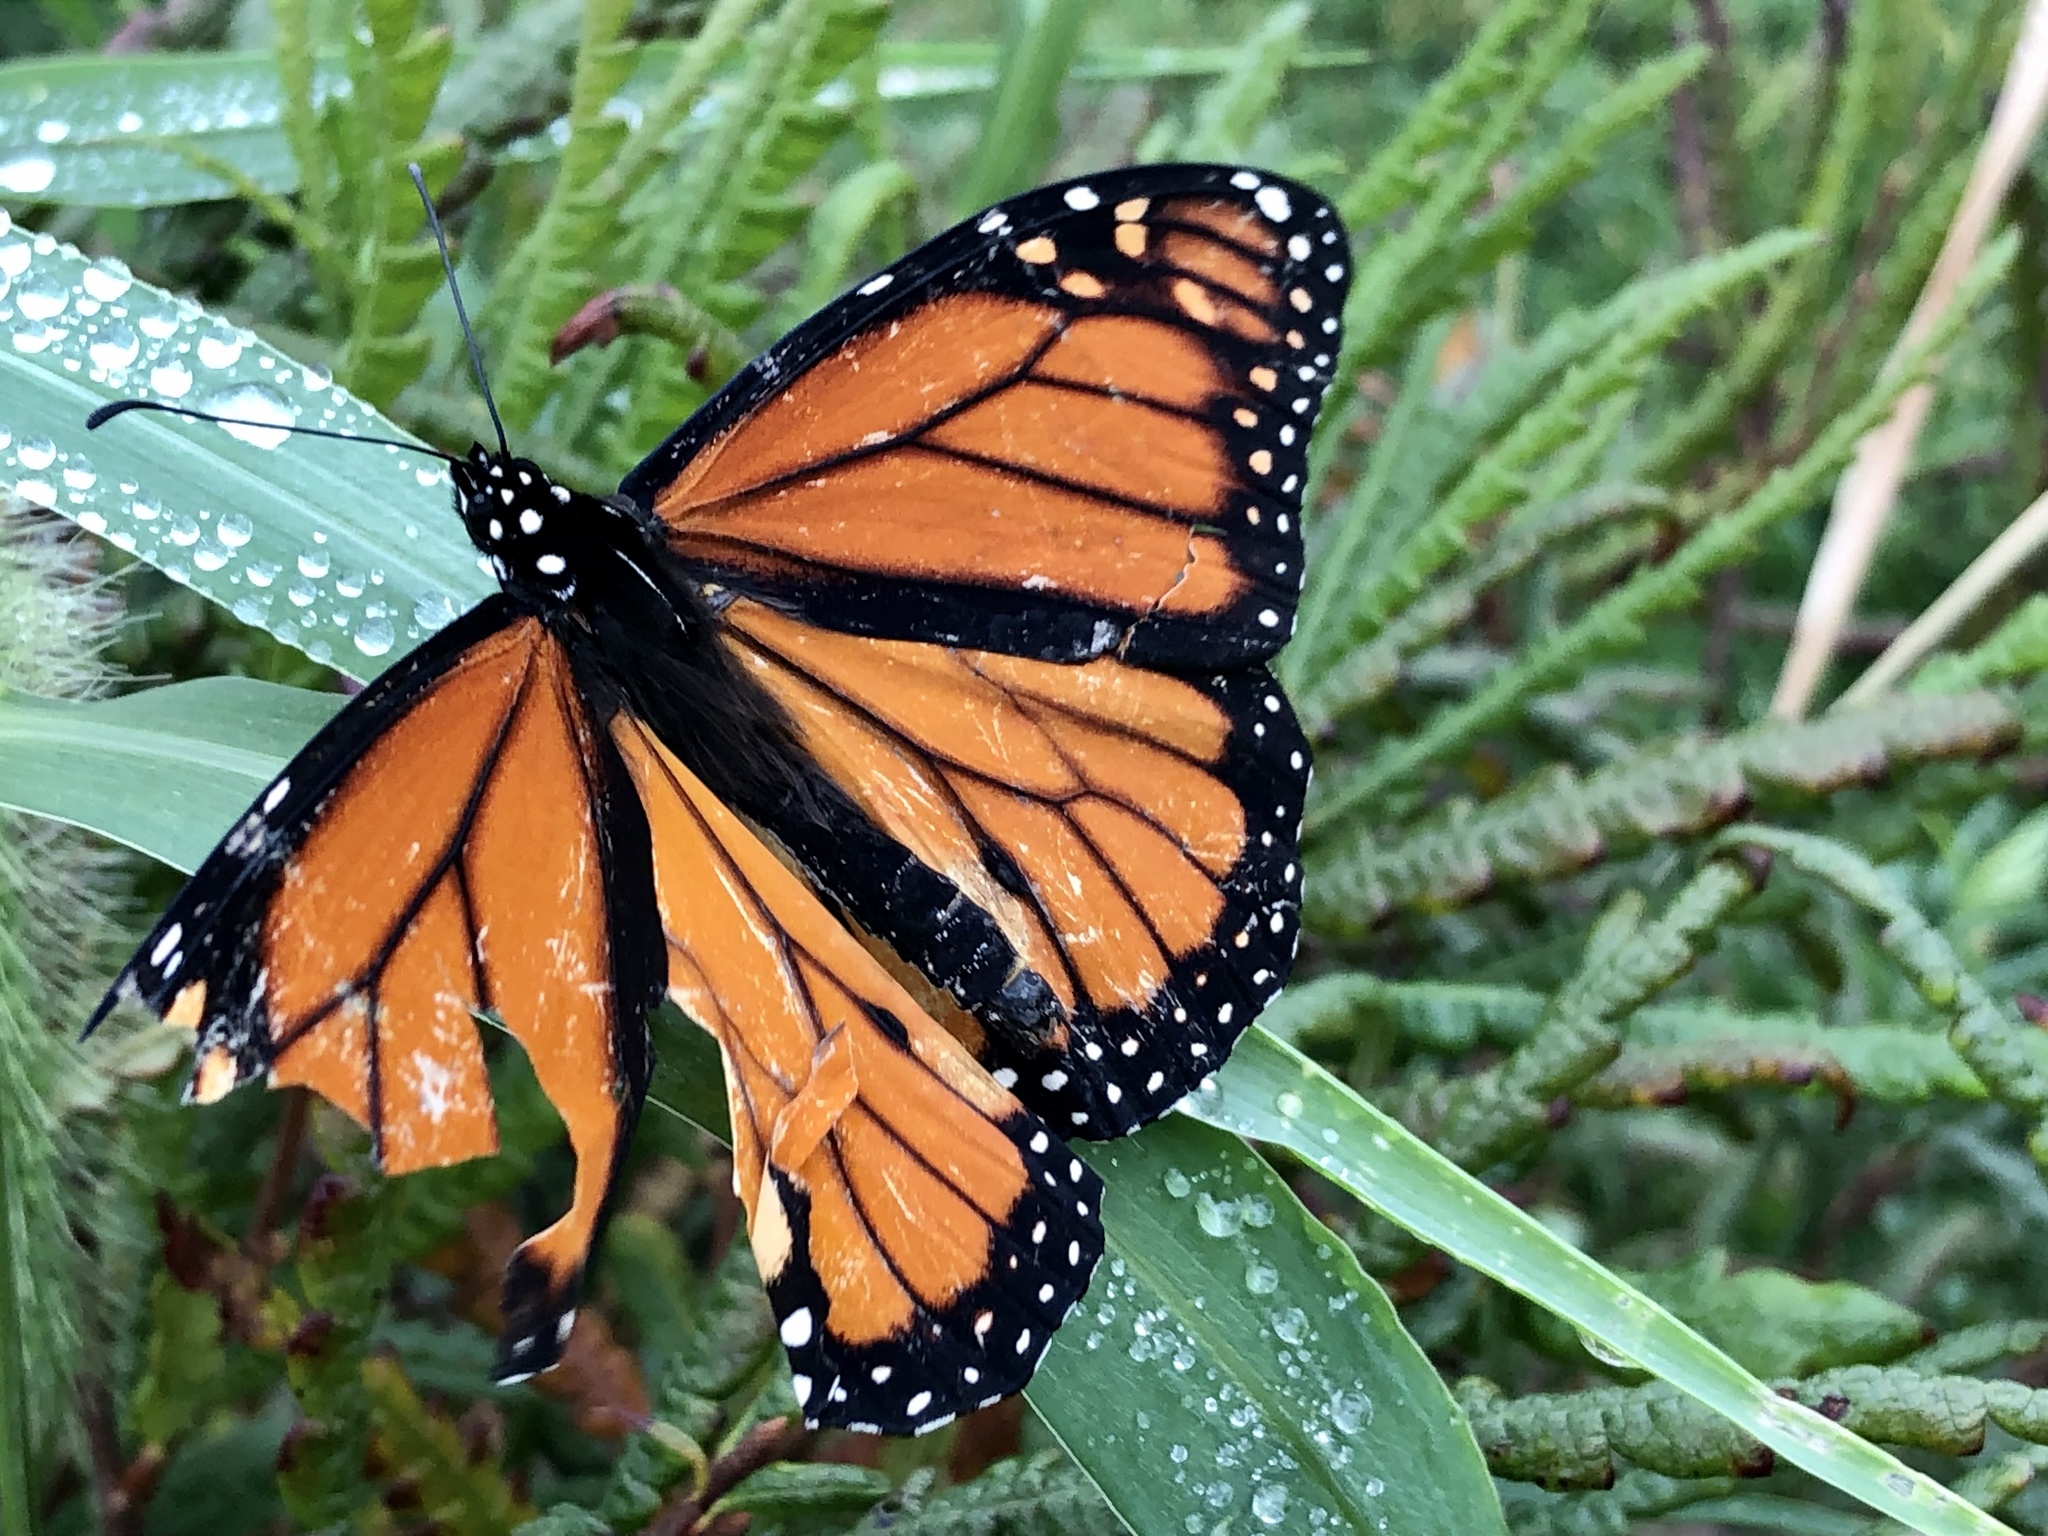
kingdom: Animalia
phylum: Arthropoda
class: Insecta
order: Lepidoptera
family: Nymphalidae
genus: Danaus
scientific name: Danaus plexippus
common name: Monarch
